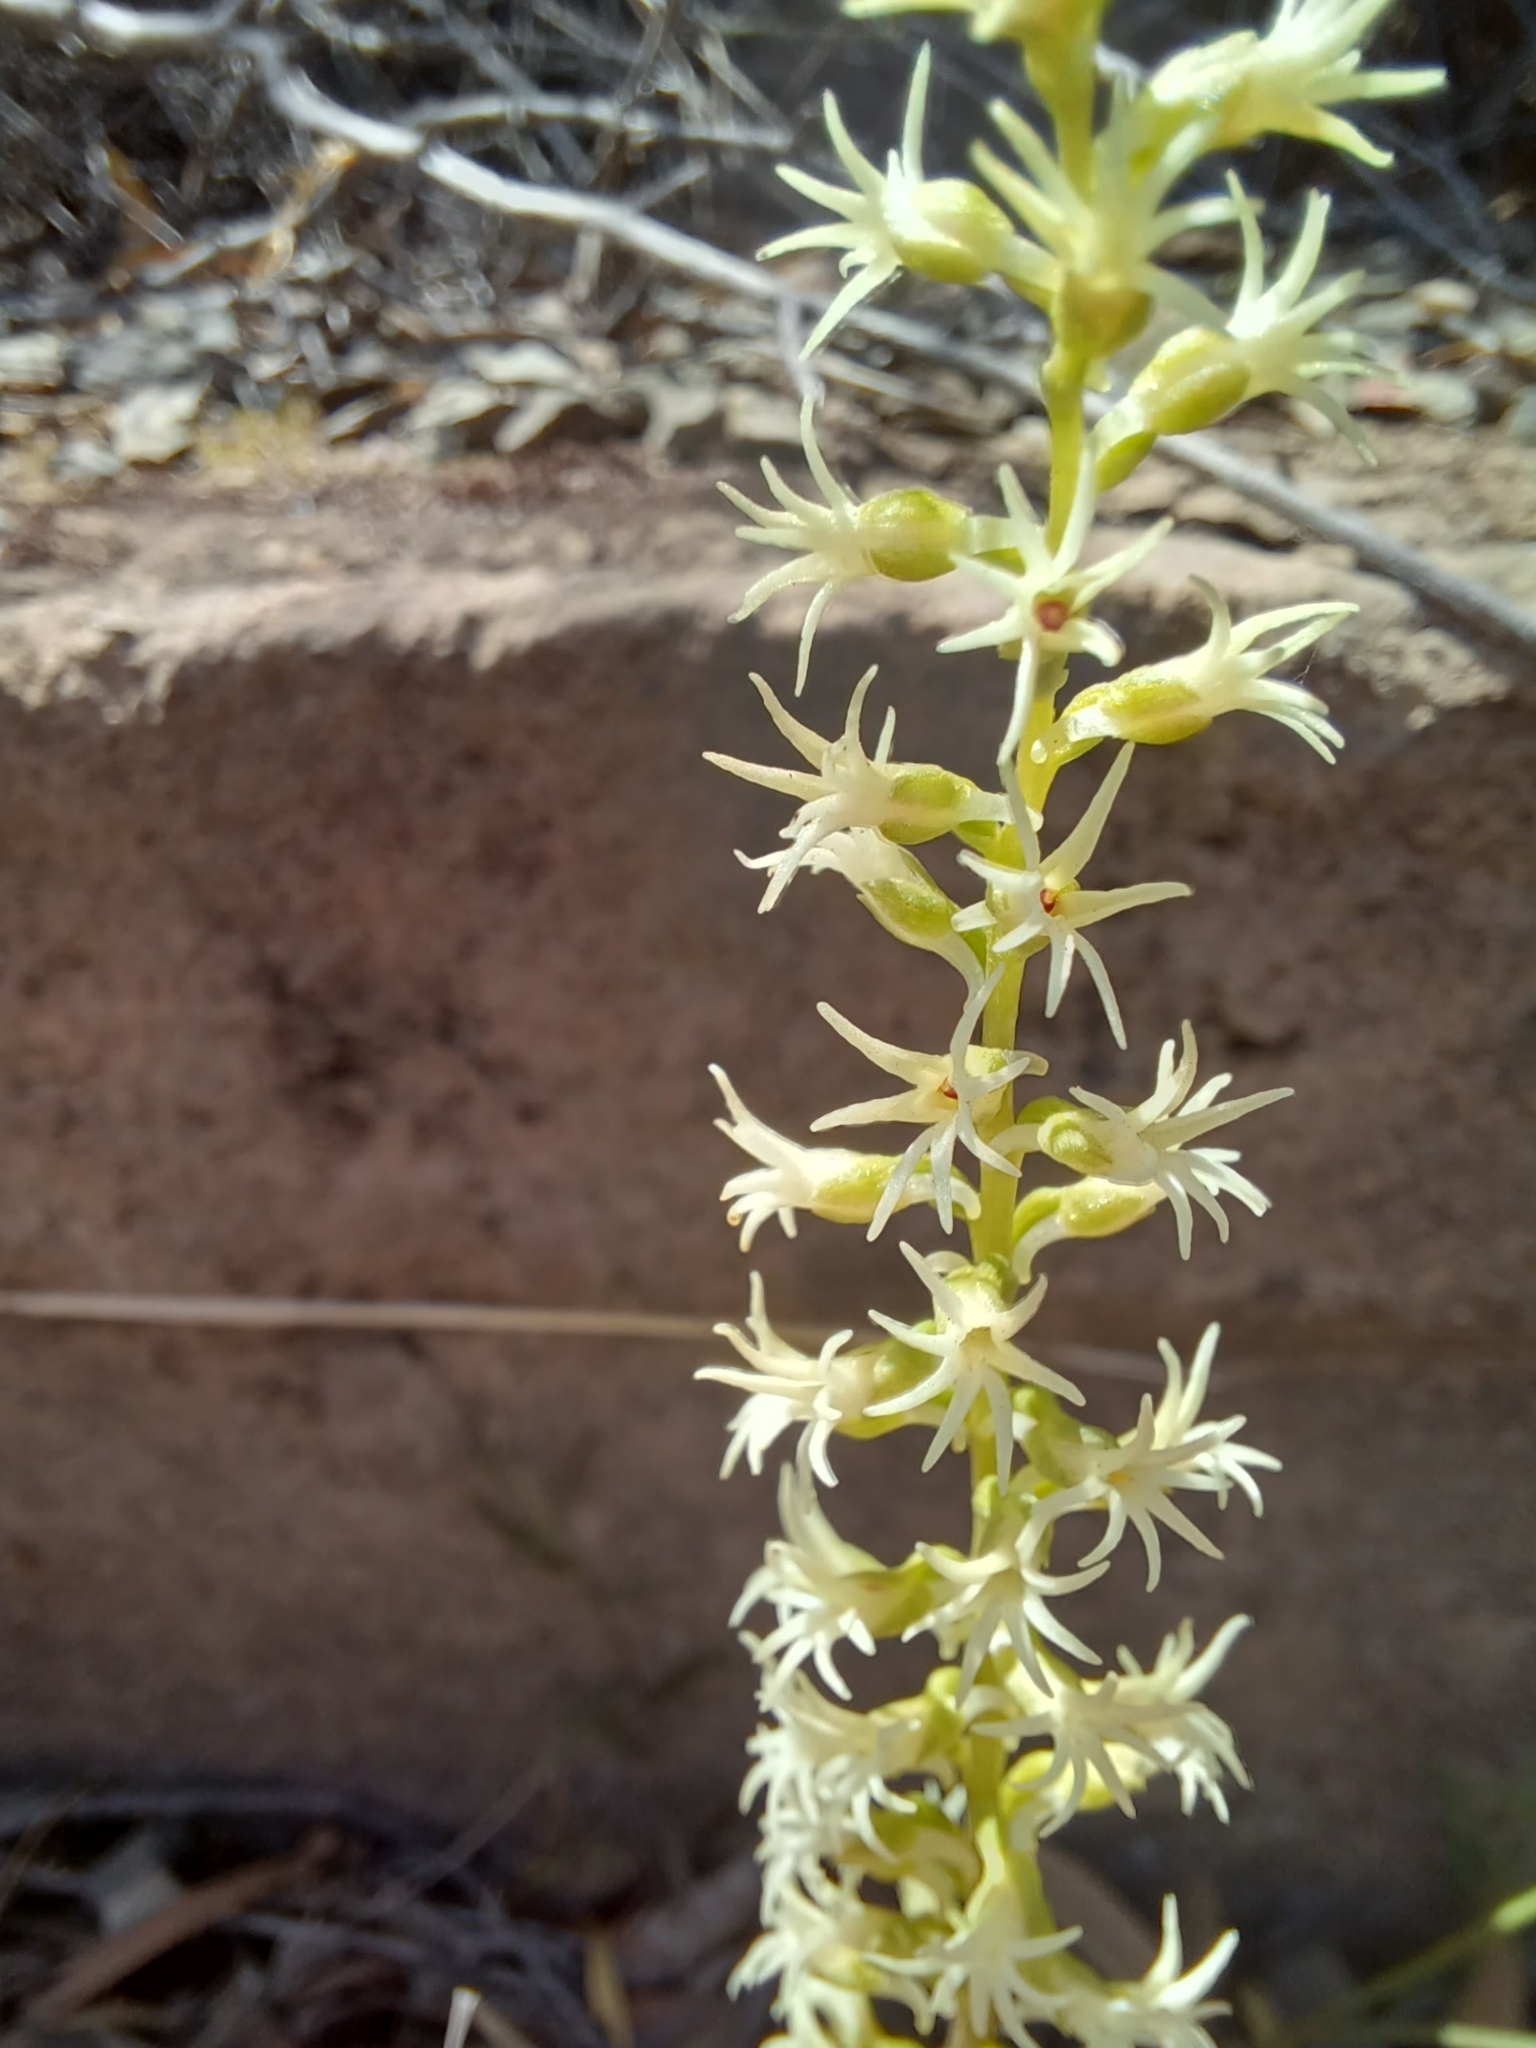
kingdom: Plantae
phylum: Tracheophyta
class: Liliopsida
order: Asparagales
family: Orchidaceae
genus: Holothrix
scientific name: Holothrix secunda
